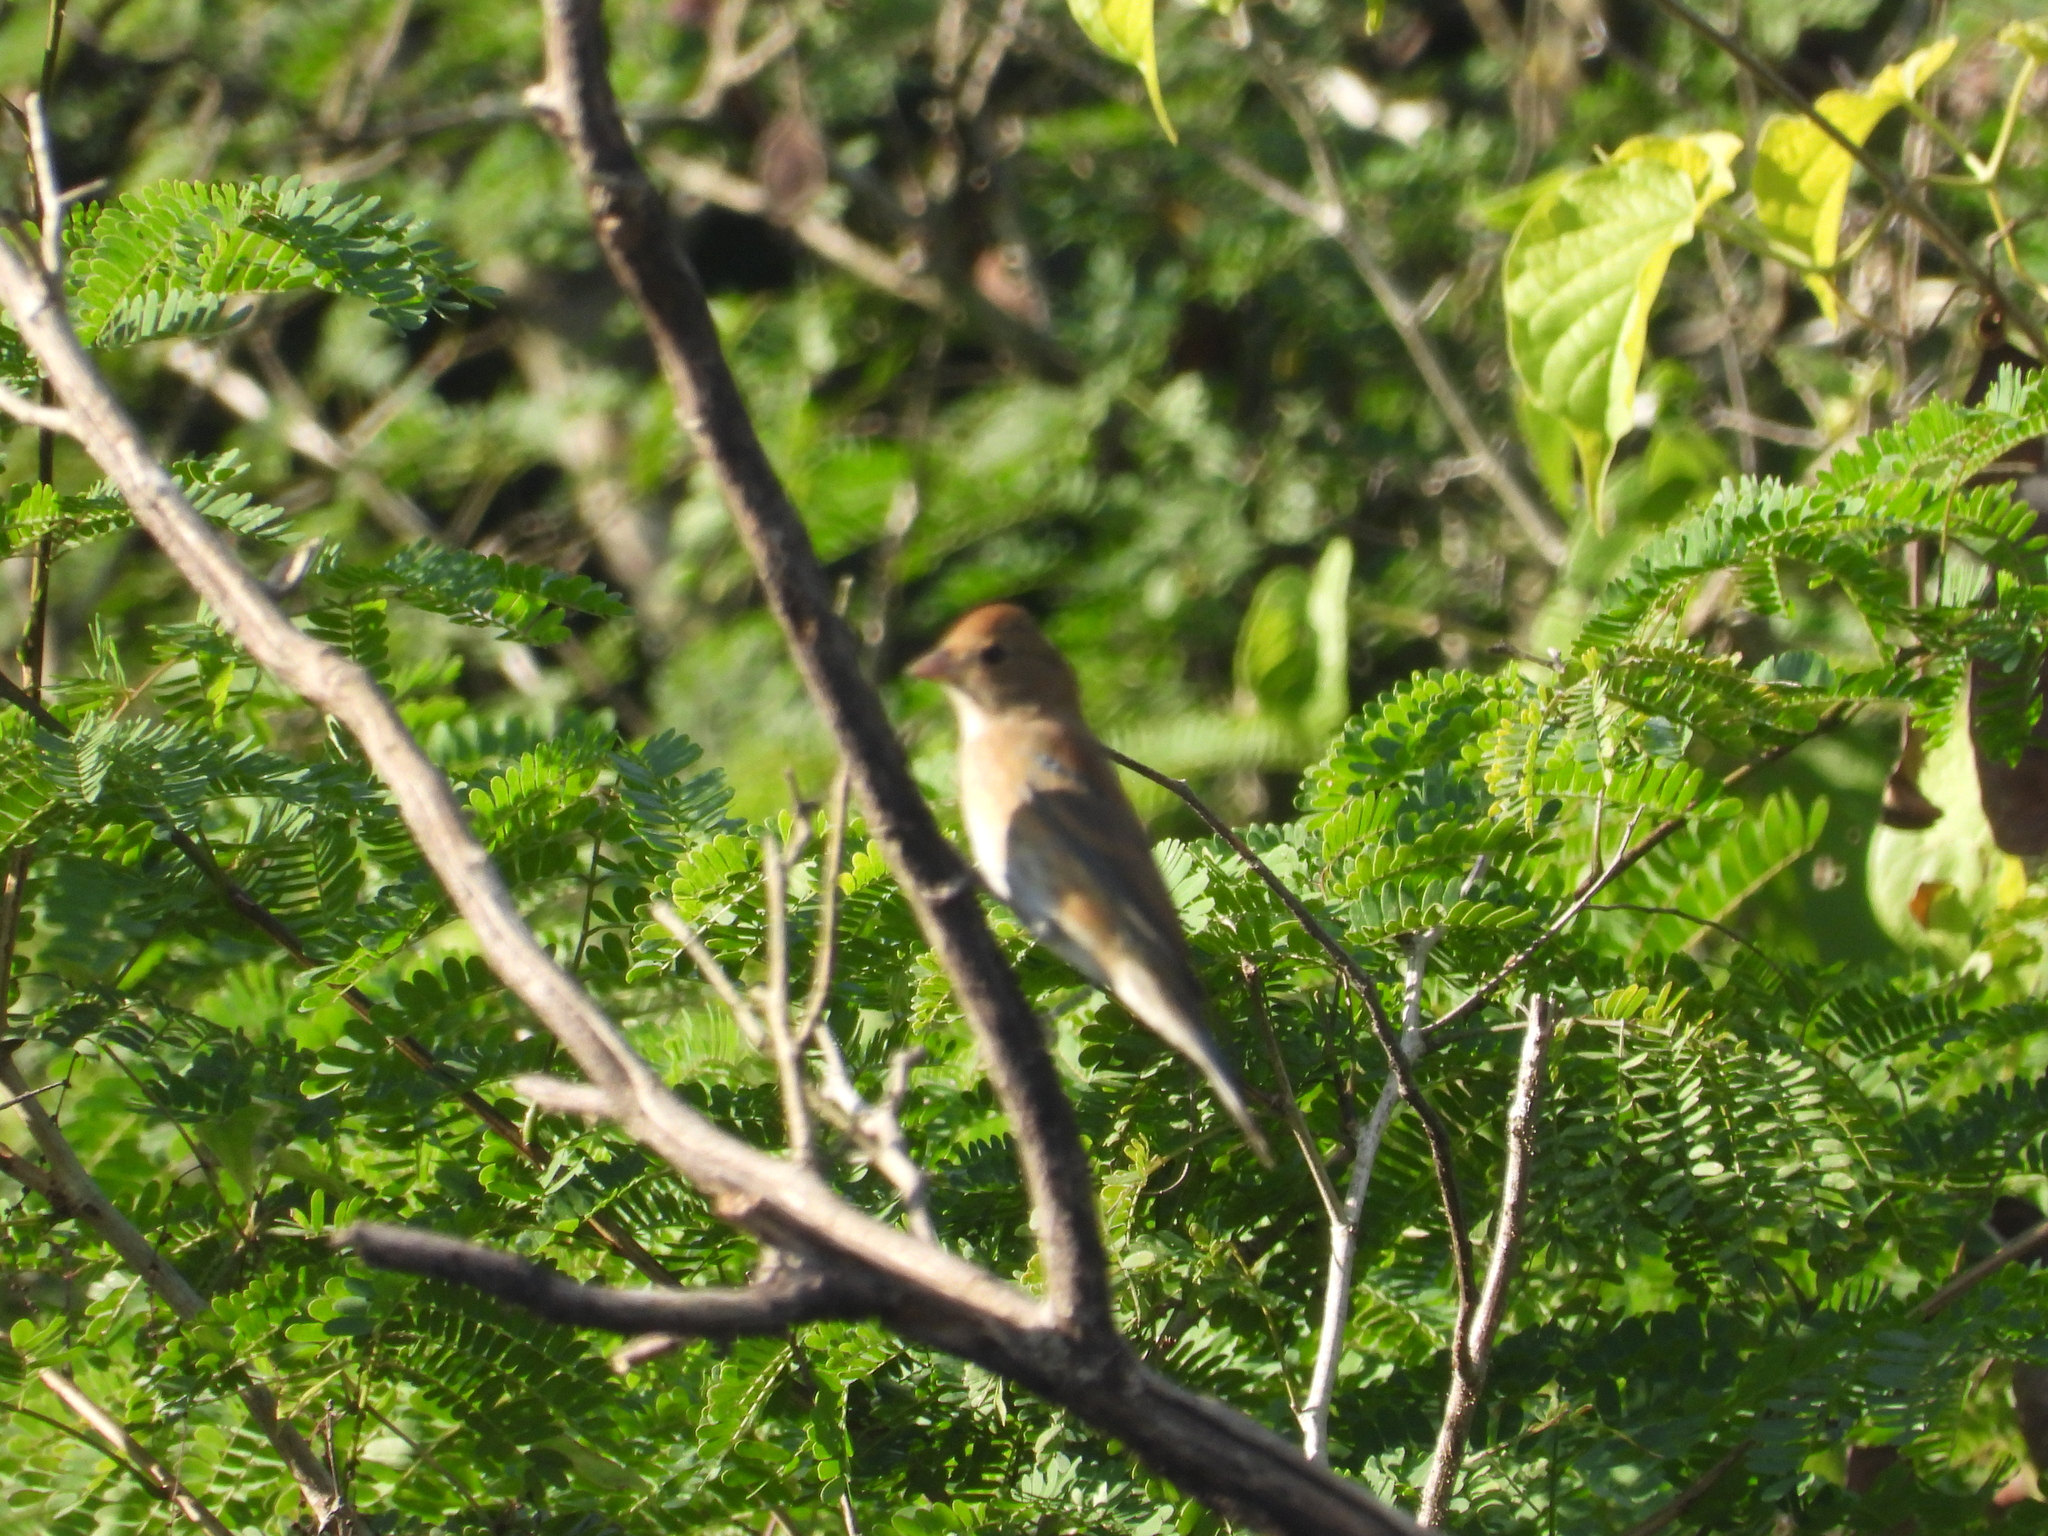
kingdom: Animalia
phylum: Chordata
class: Aves
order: Passeriformes
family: Cardinalidae
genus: Passerina
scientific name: Passerina cyanea
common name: Indigo bunting
